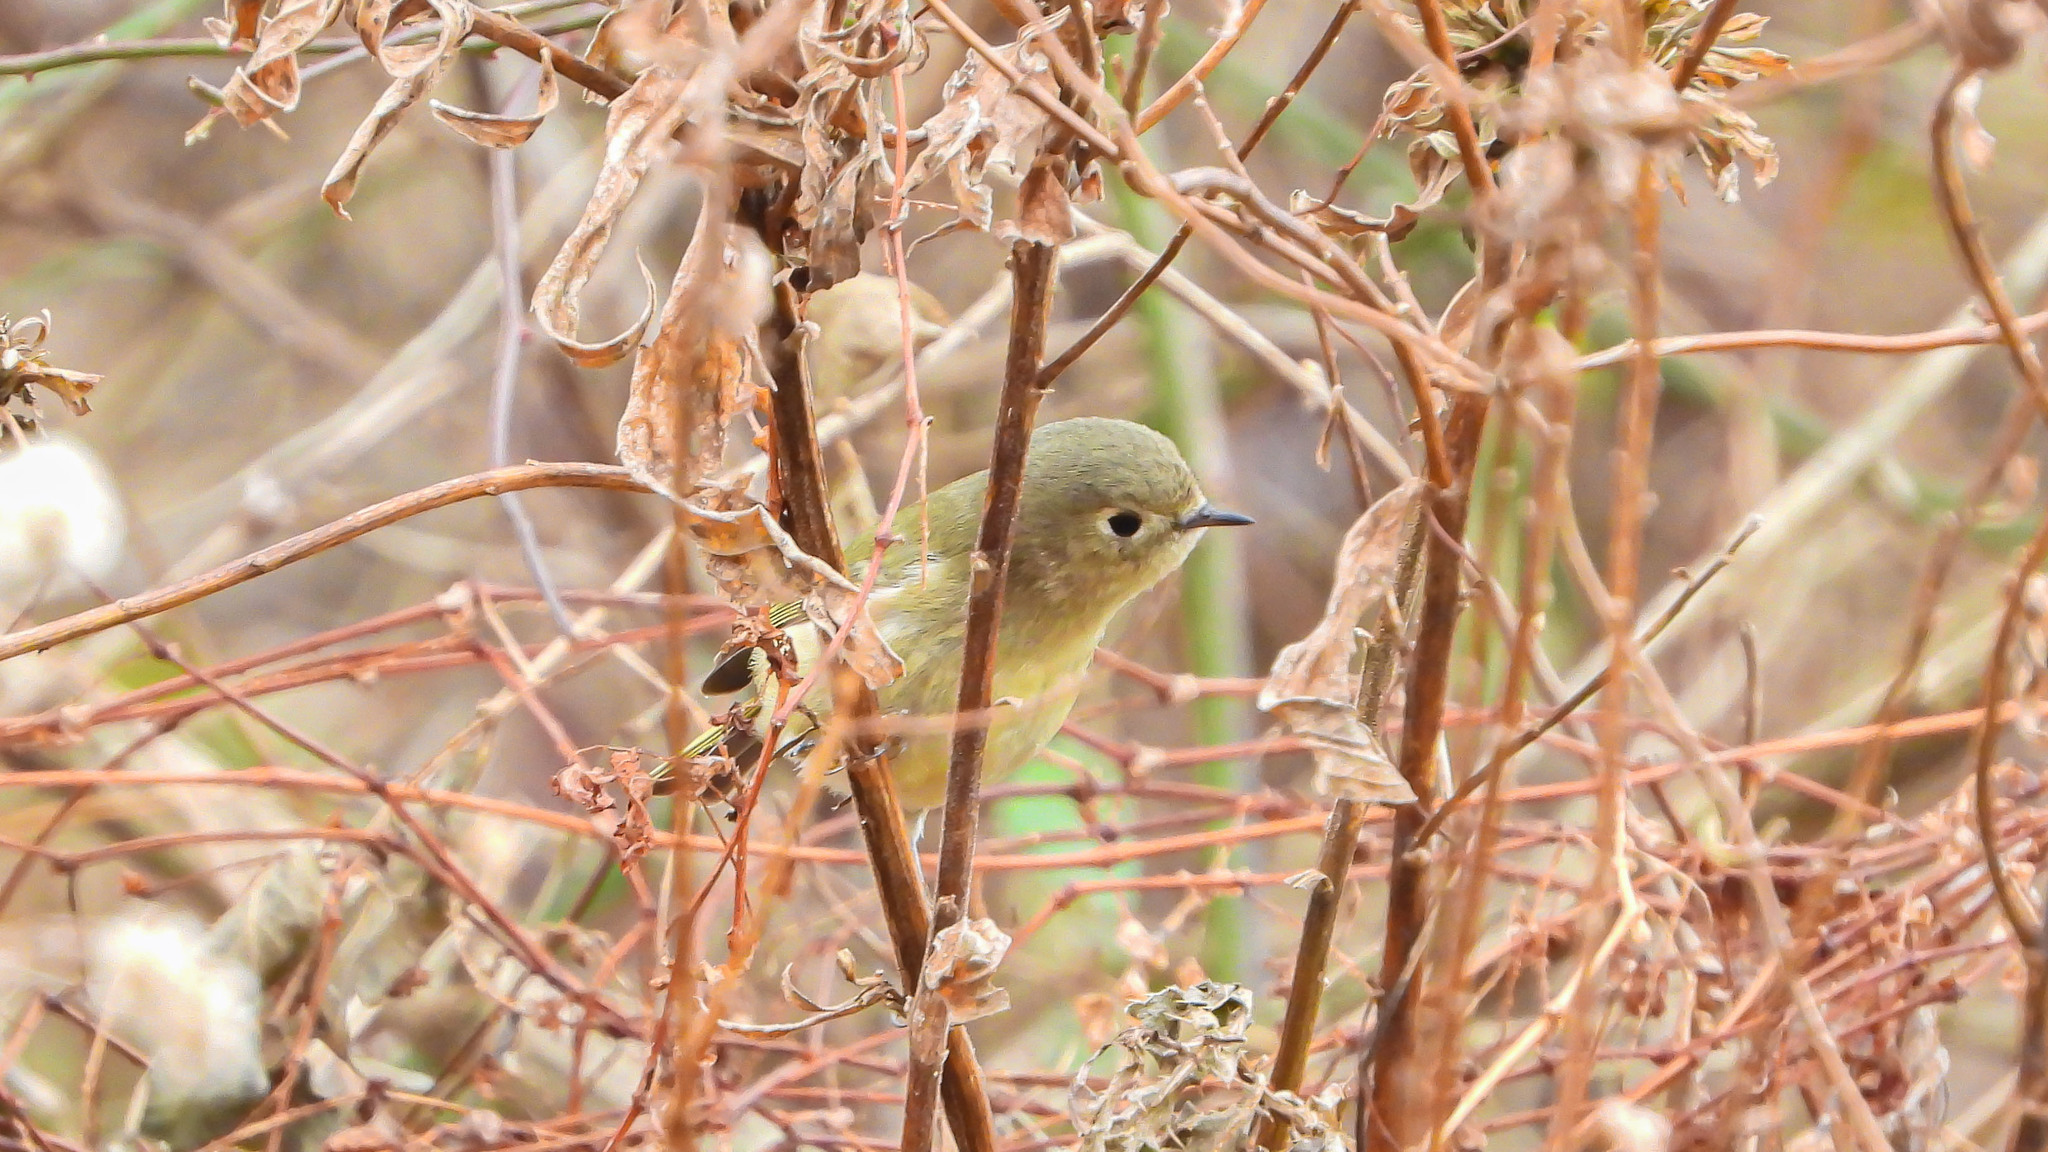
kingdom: Animalia
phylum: Chordata
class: Aves
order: Passeriformes
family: Regulidae
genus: Regulus
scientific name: Regulus calendula
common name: Ruby-crowned kinglet
